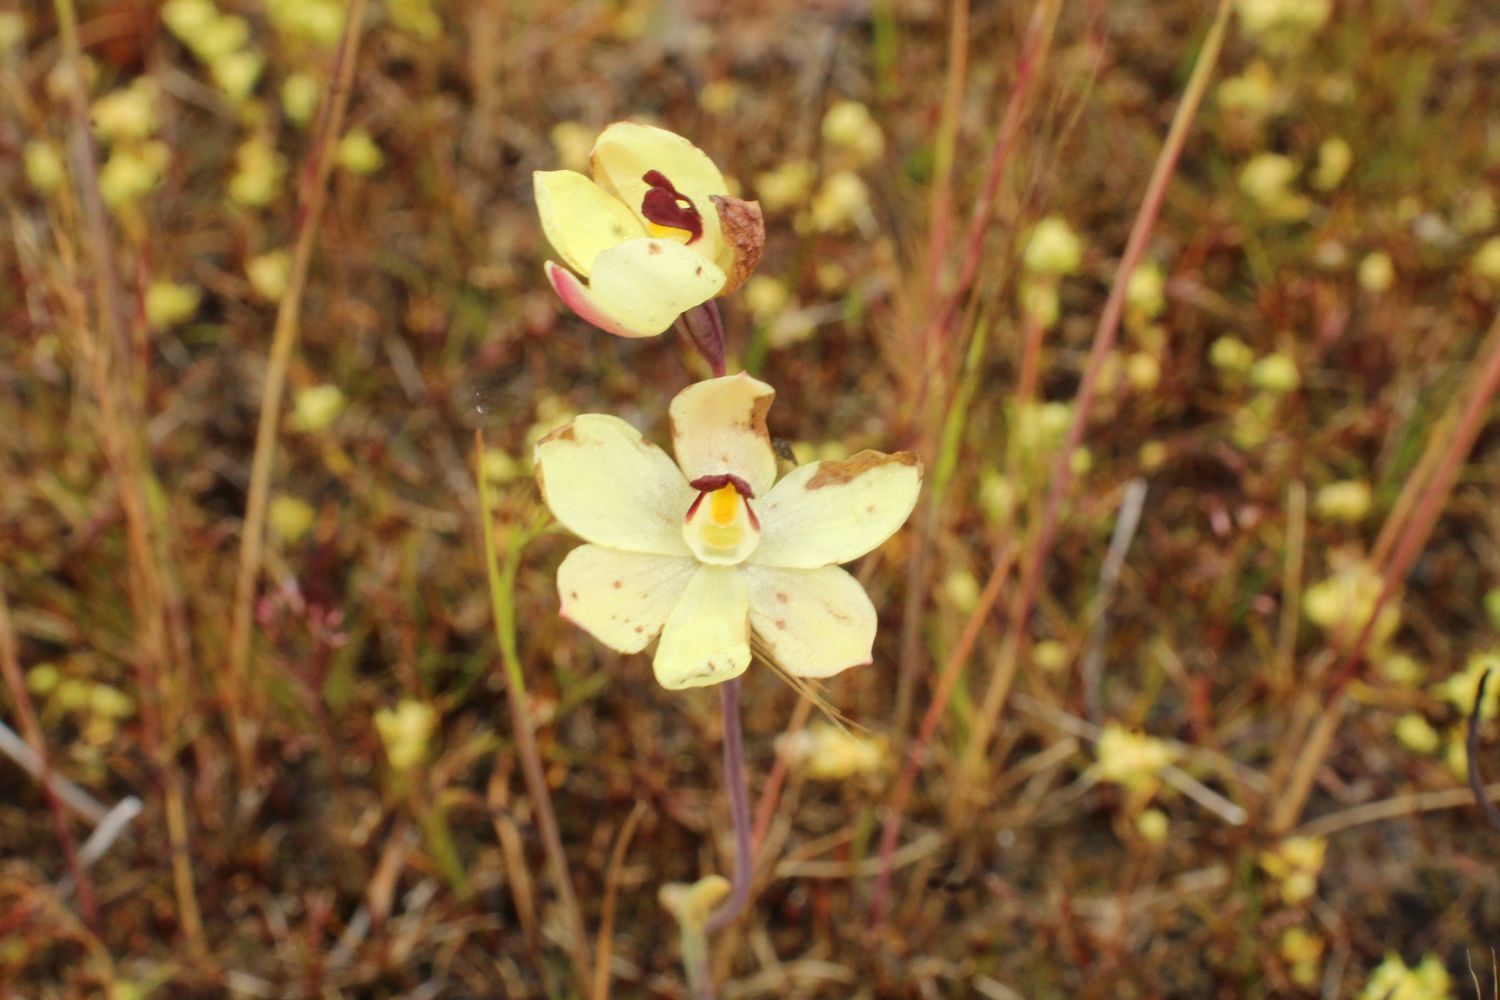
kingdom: Plantae
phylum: Tracheophyta
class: Liliopsida
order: Asparagales
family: Orchidaceae
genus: Thelymitra
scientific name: Thelymitra antennifera
